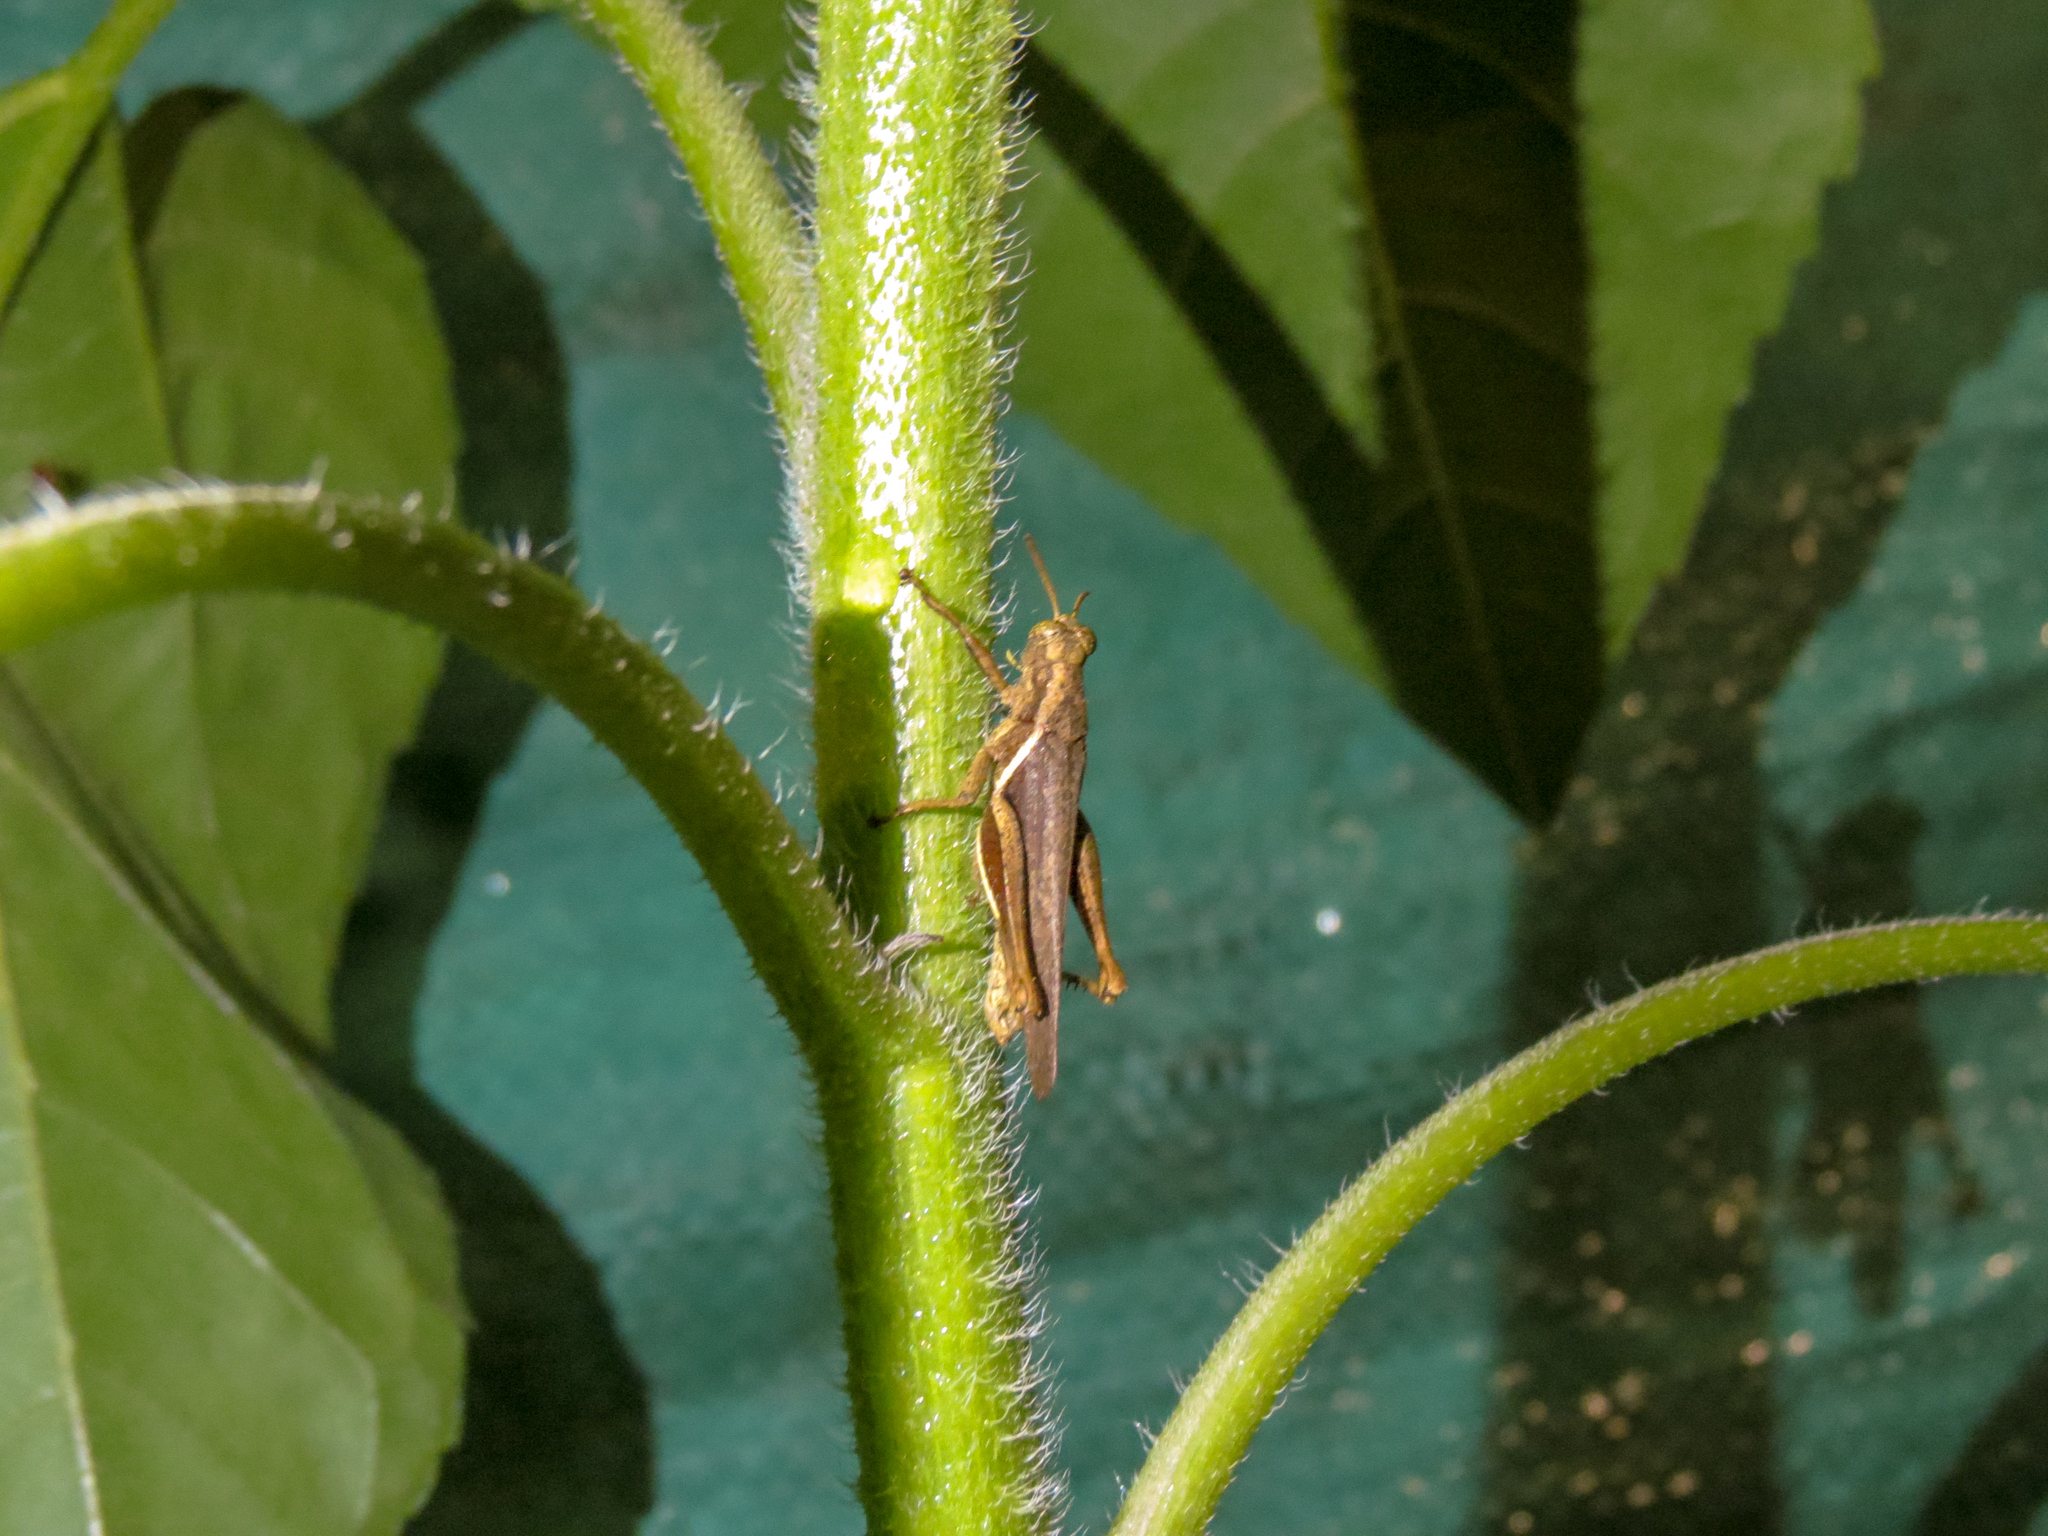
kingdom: Animalia
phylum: Arthropoda
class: Insecta
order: Orthoptera
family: Acrididae
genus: Abracris
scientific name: Abracris flavolineata
